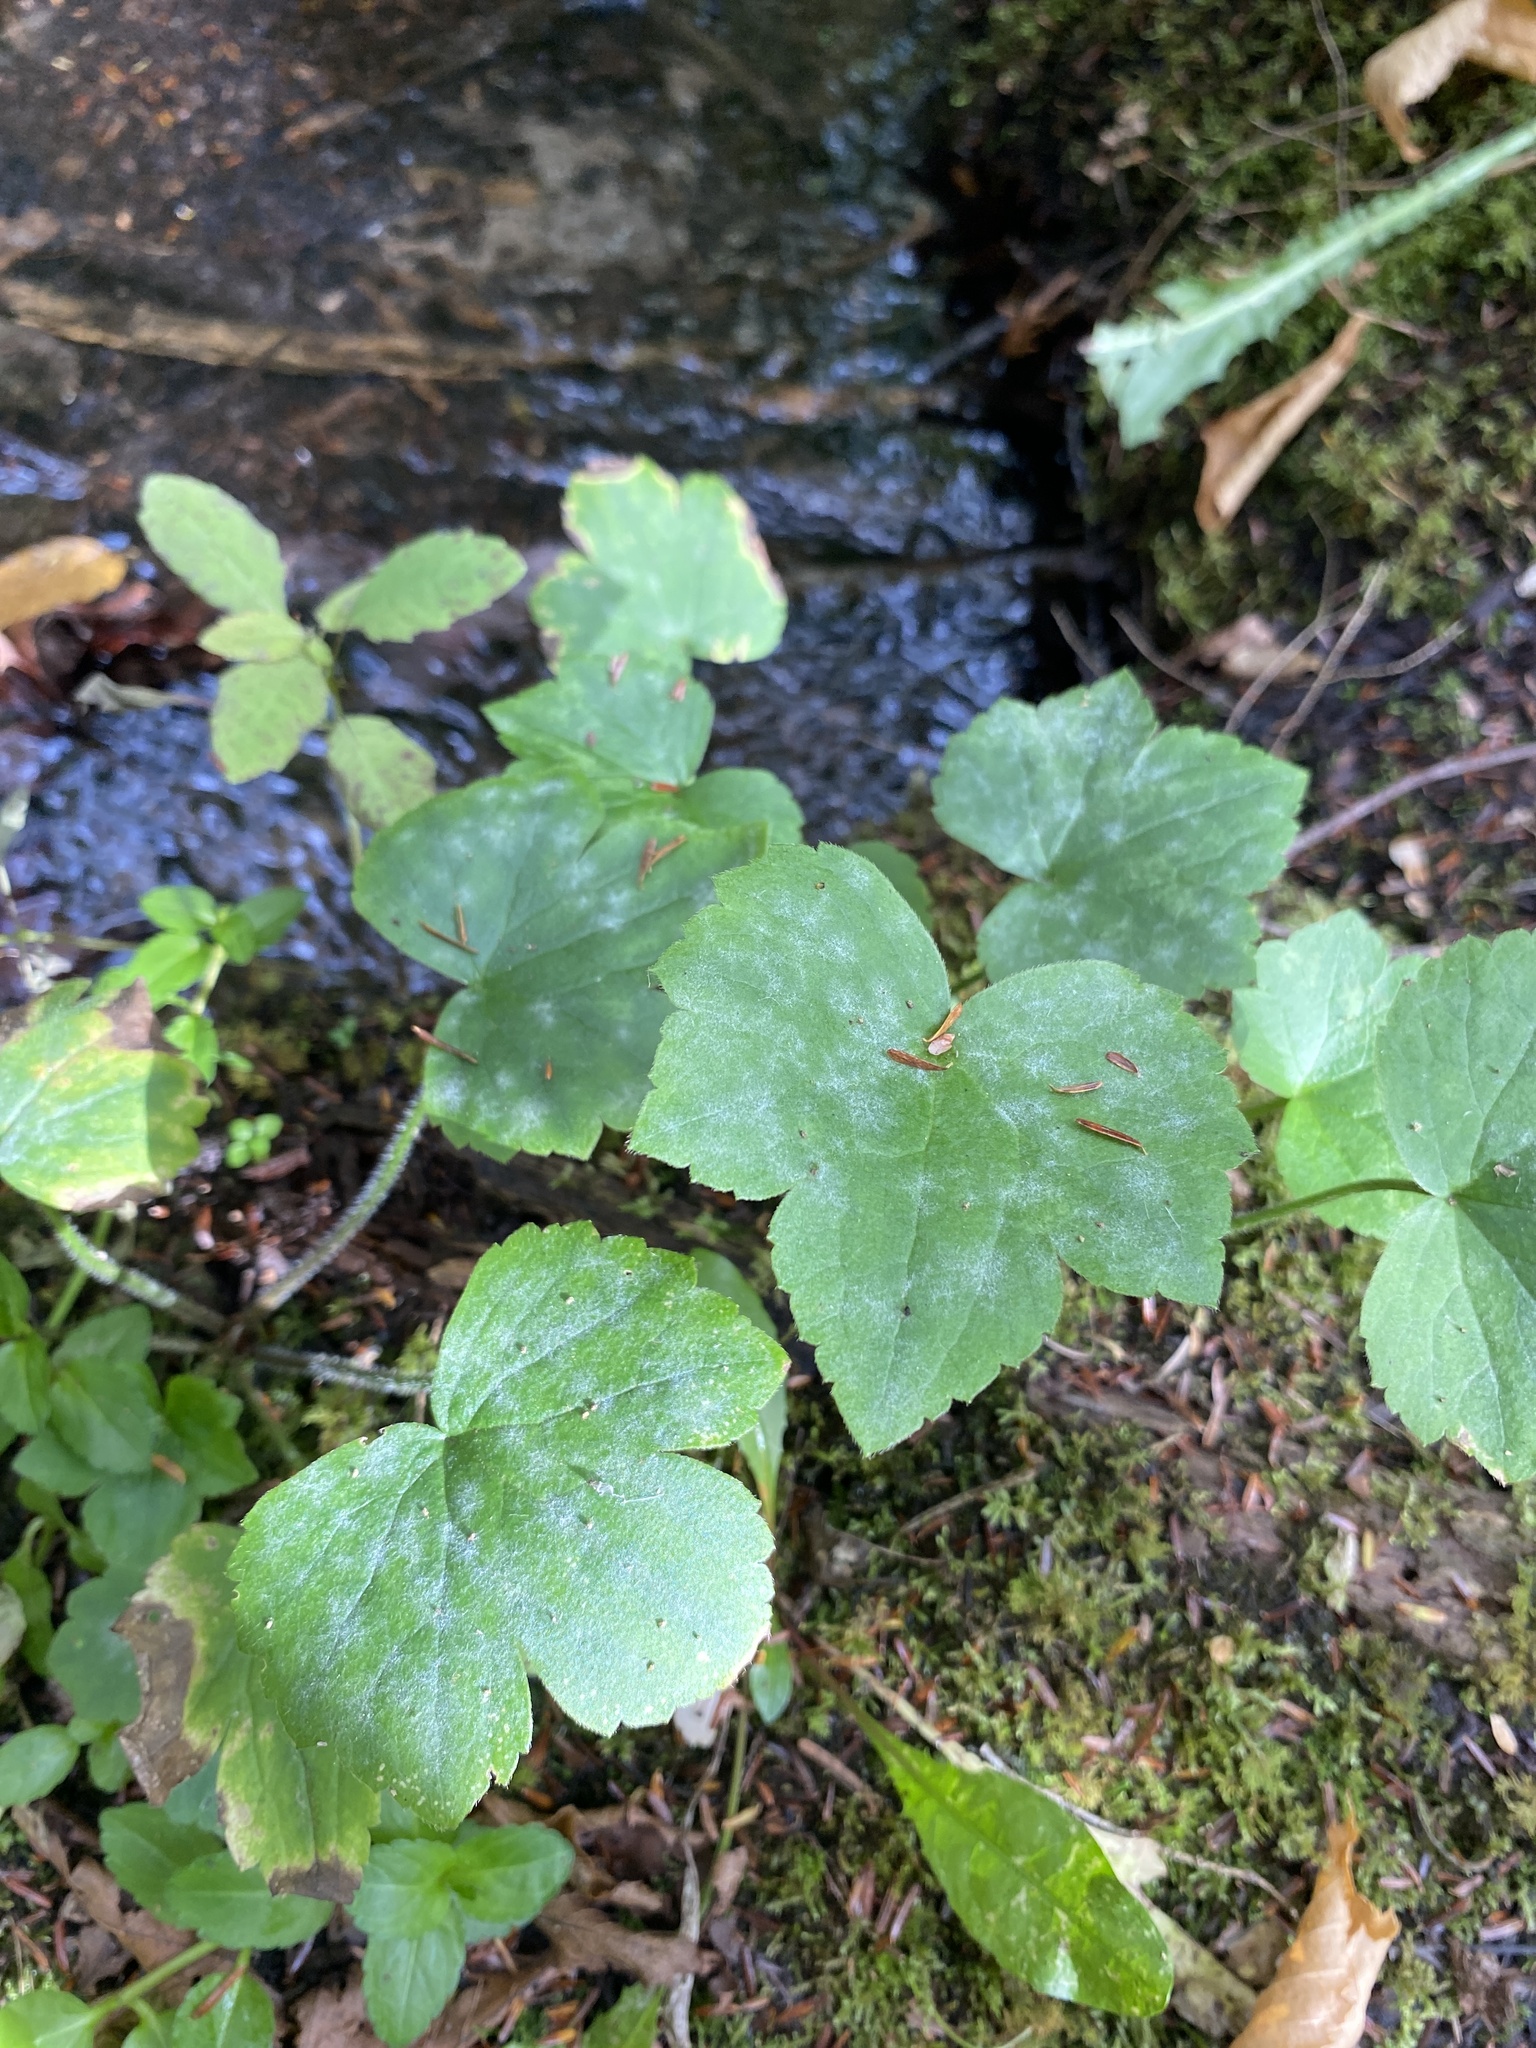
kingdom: Plantae
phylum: Tracheophyta
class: Magnoliopsida
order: Ranunculales
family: Ranunculaceae
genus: Ranunculus
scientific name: Ranunculus recurvatus
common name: Blisterwort
